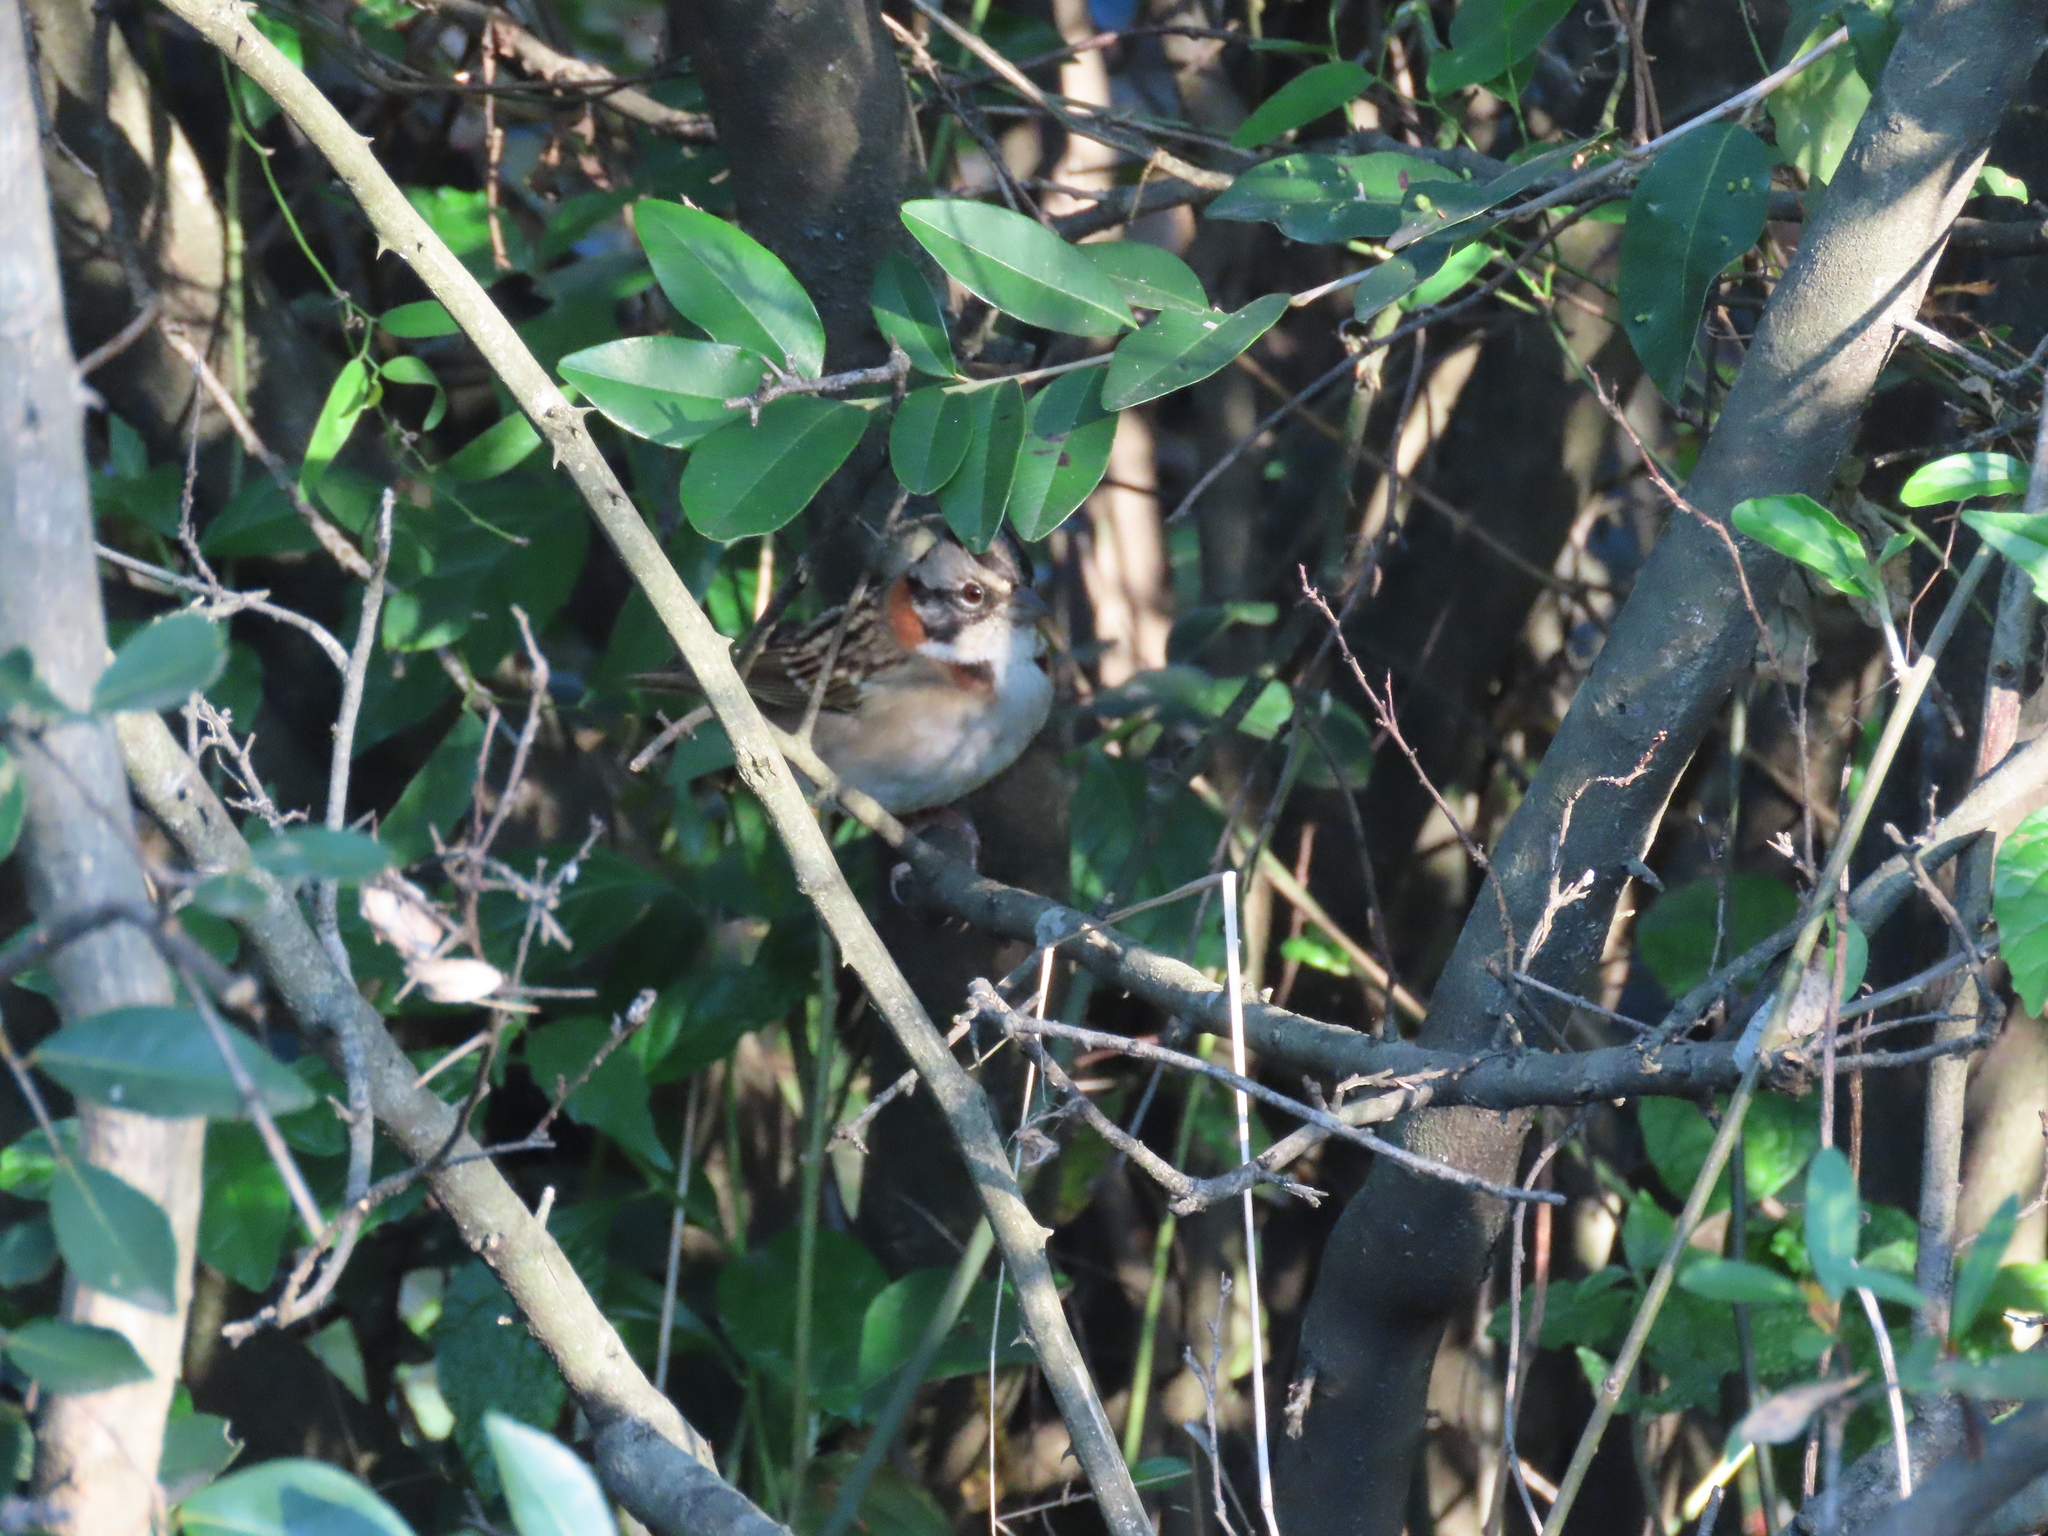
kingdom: Animalia
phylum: Chordata
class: Aves
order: Passeriformes
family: Passerellidae
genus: Zonotrichia
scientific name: Zonotrichia capensis
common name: Rufous-collared sparrow
